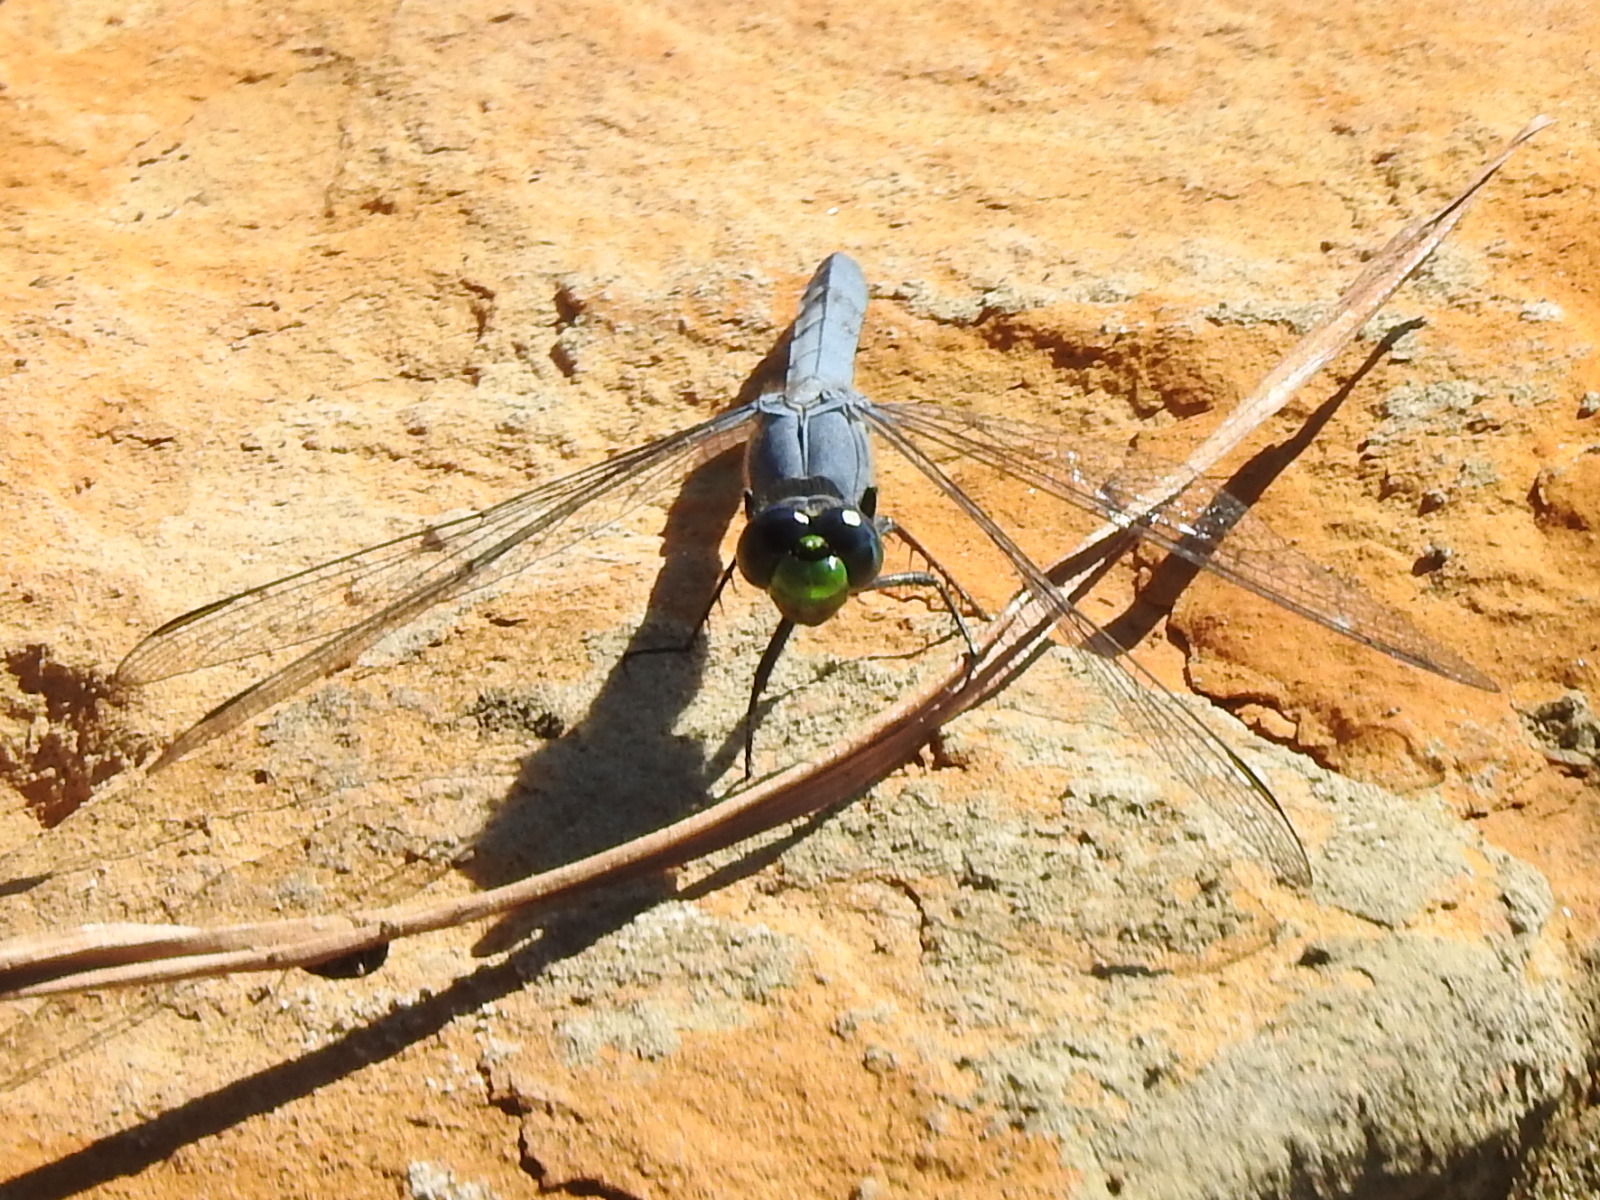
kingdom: Animalia
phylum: Arthropoda
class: Insecta
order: Odonata
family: Libellulidae
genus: Erythemis
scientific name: Erythemis simplicicollis
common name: Eastern pondhawk
